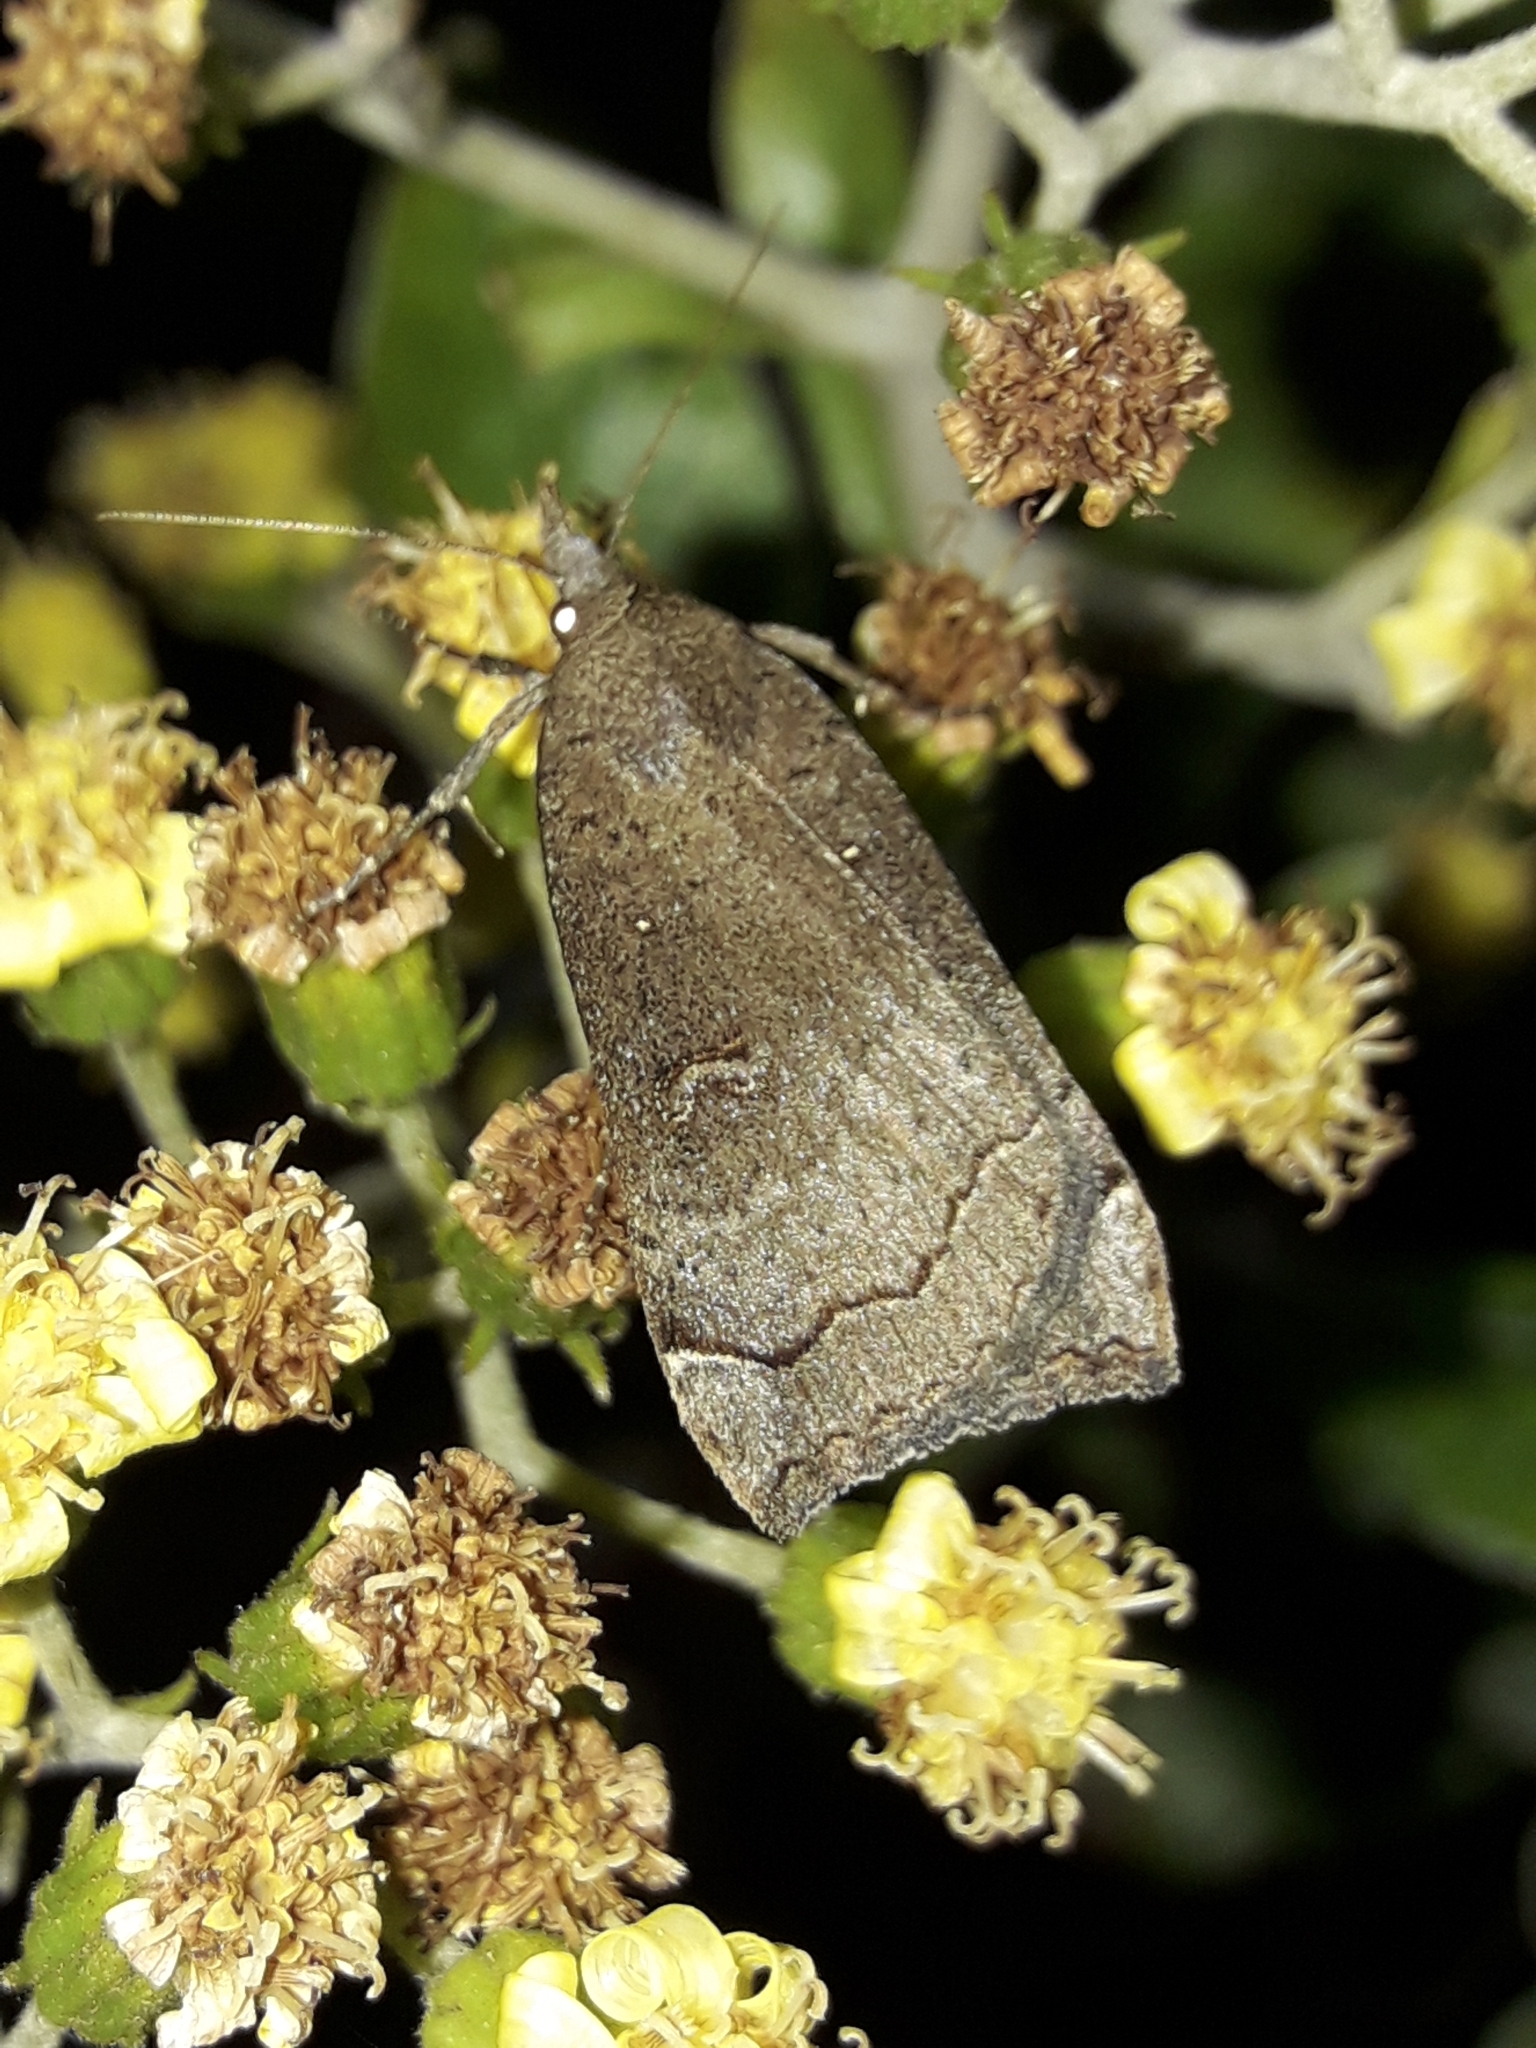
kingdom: Animalia
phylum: Arthropoda
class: Insecta
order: Lepidoptera
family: Erebidae
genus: Rhapsa
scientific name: Rhapsa scotosialis
